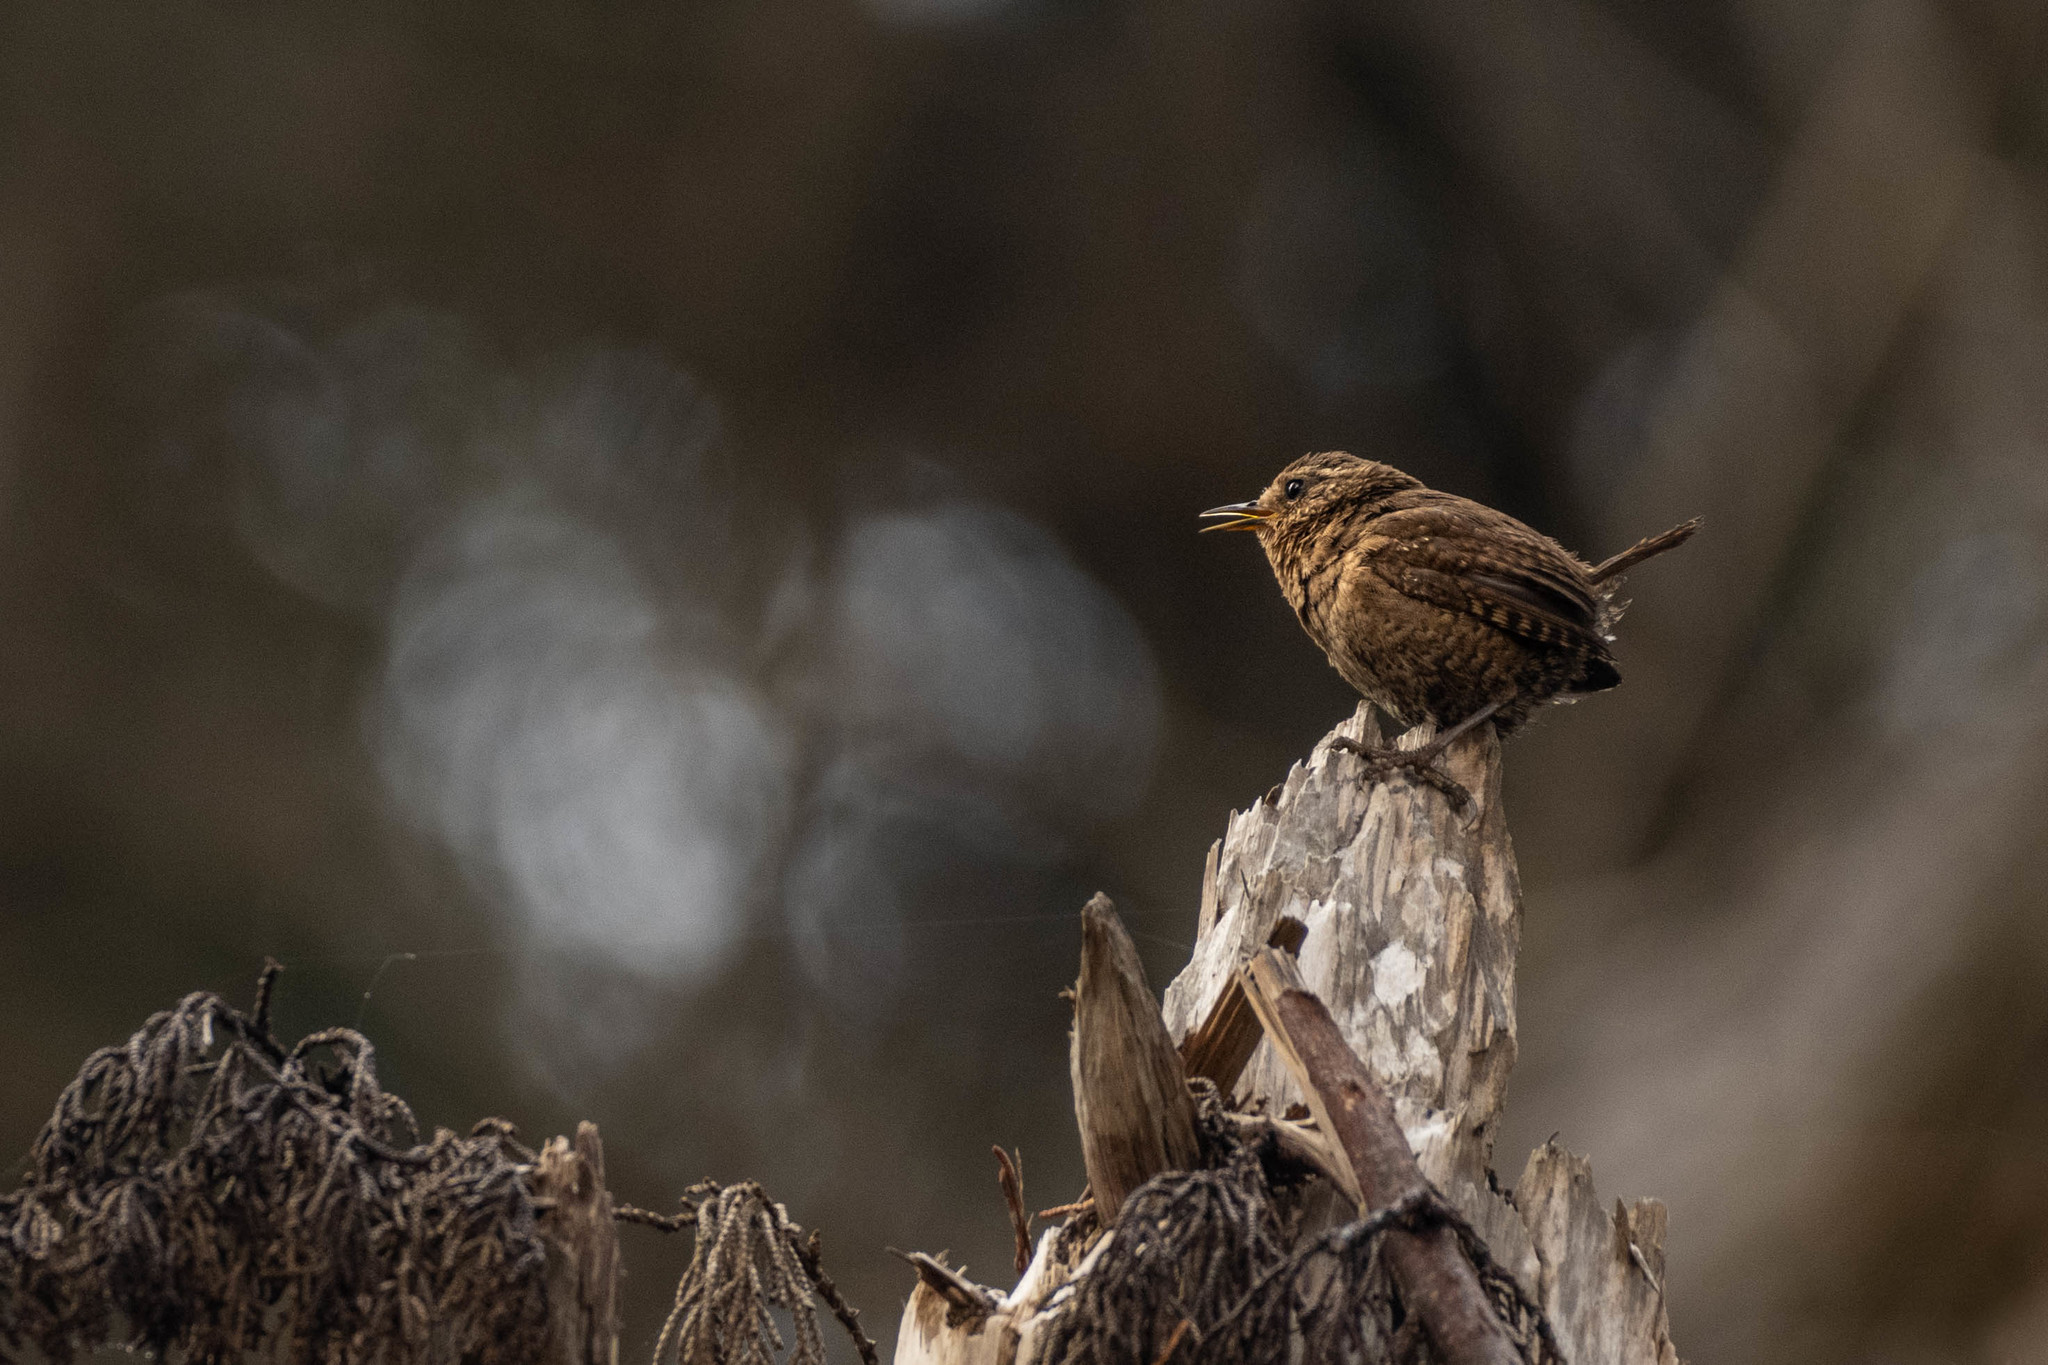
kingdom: Animalia
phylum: Chordata
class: Aves
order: Passeriformes
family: Troglodytidae
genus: Troglodytes
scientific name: Troglodytes pacificus
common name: Pacific wren
